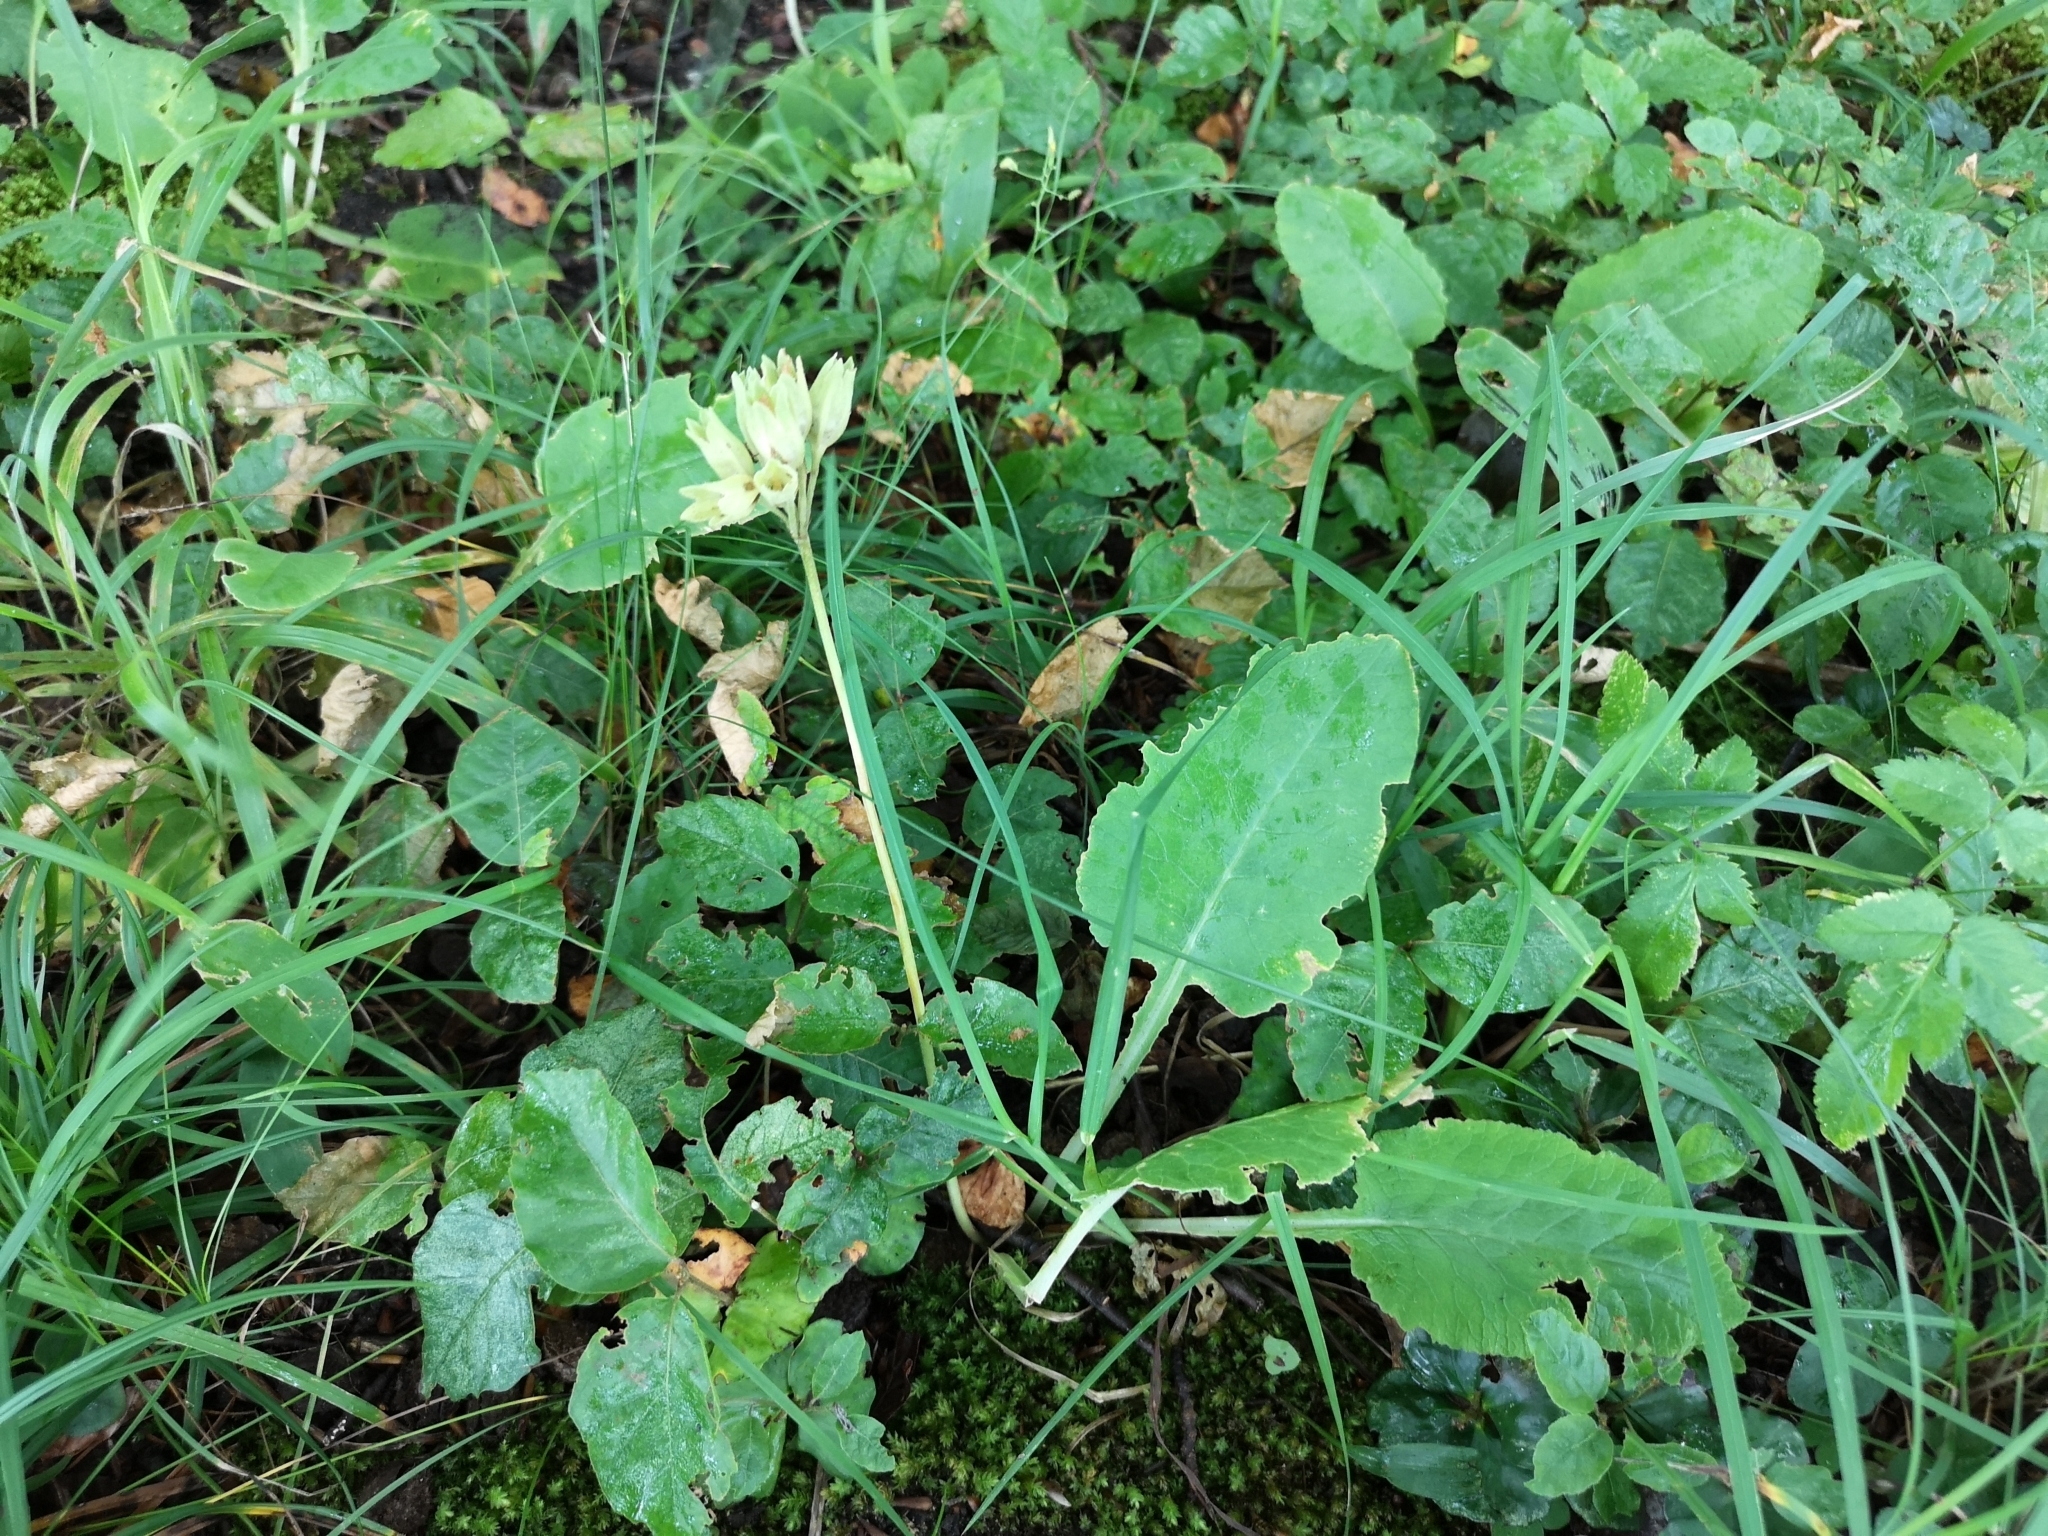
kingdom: Plantae
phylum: Tracheophyta
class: Magnoliopsida
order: Ericales
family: Primulaceae
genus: Primula
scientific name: Primula elatior
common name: Oxlip
